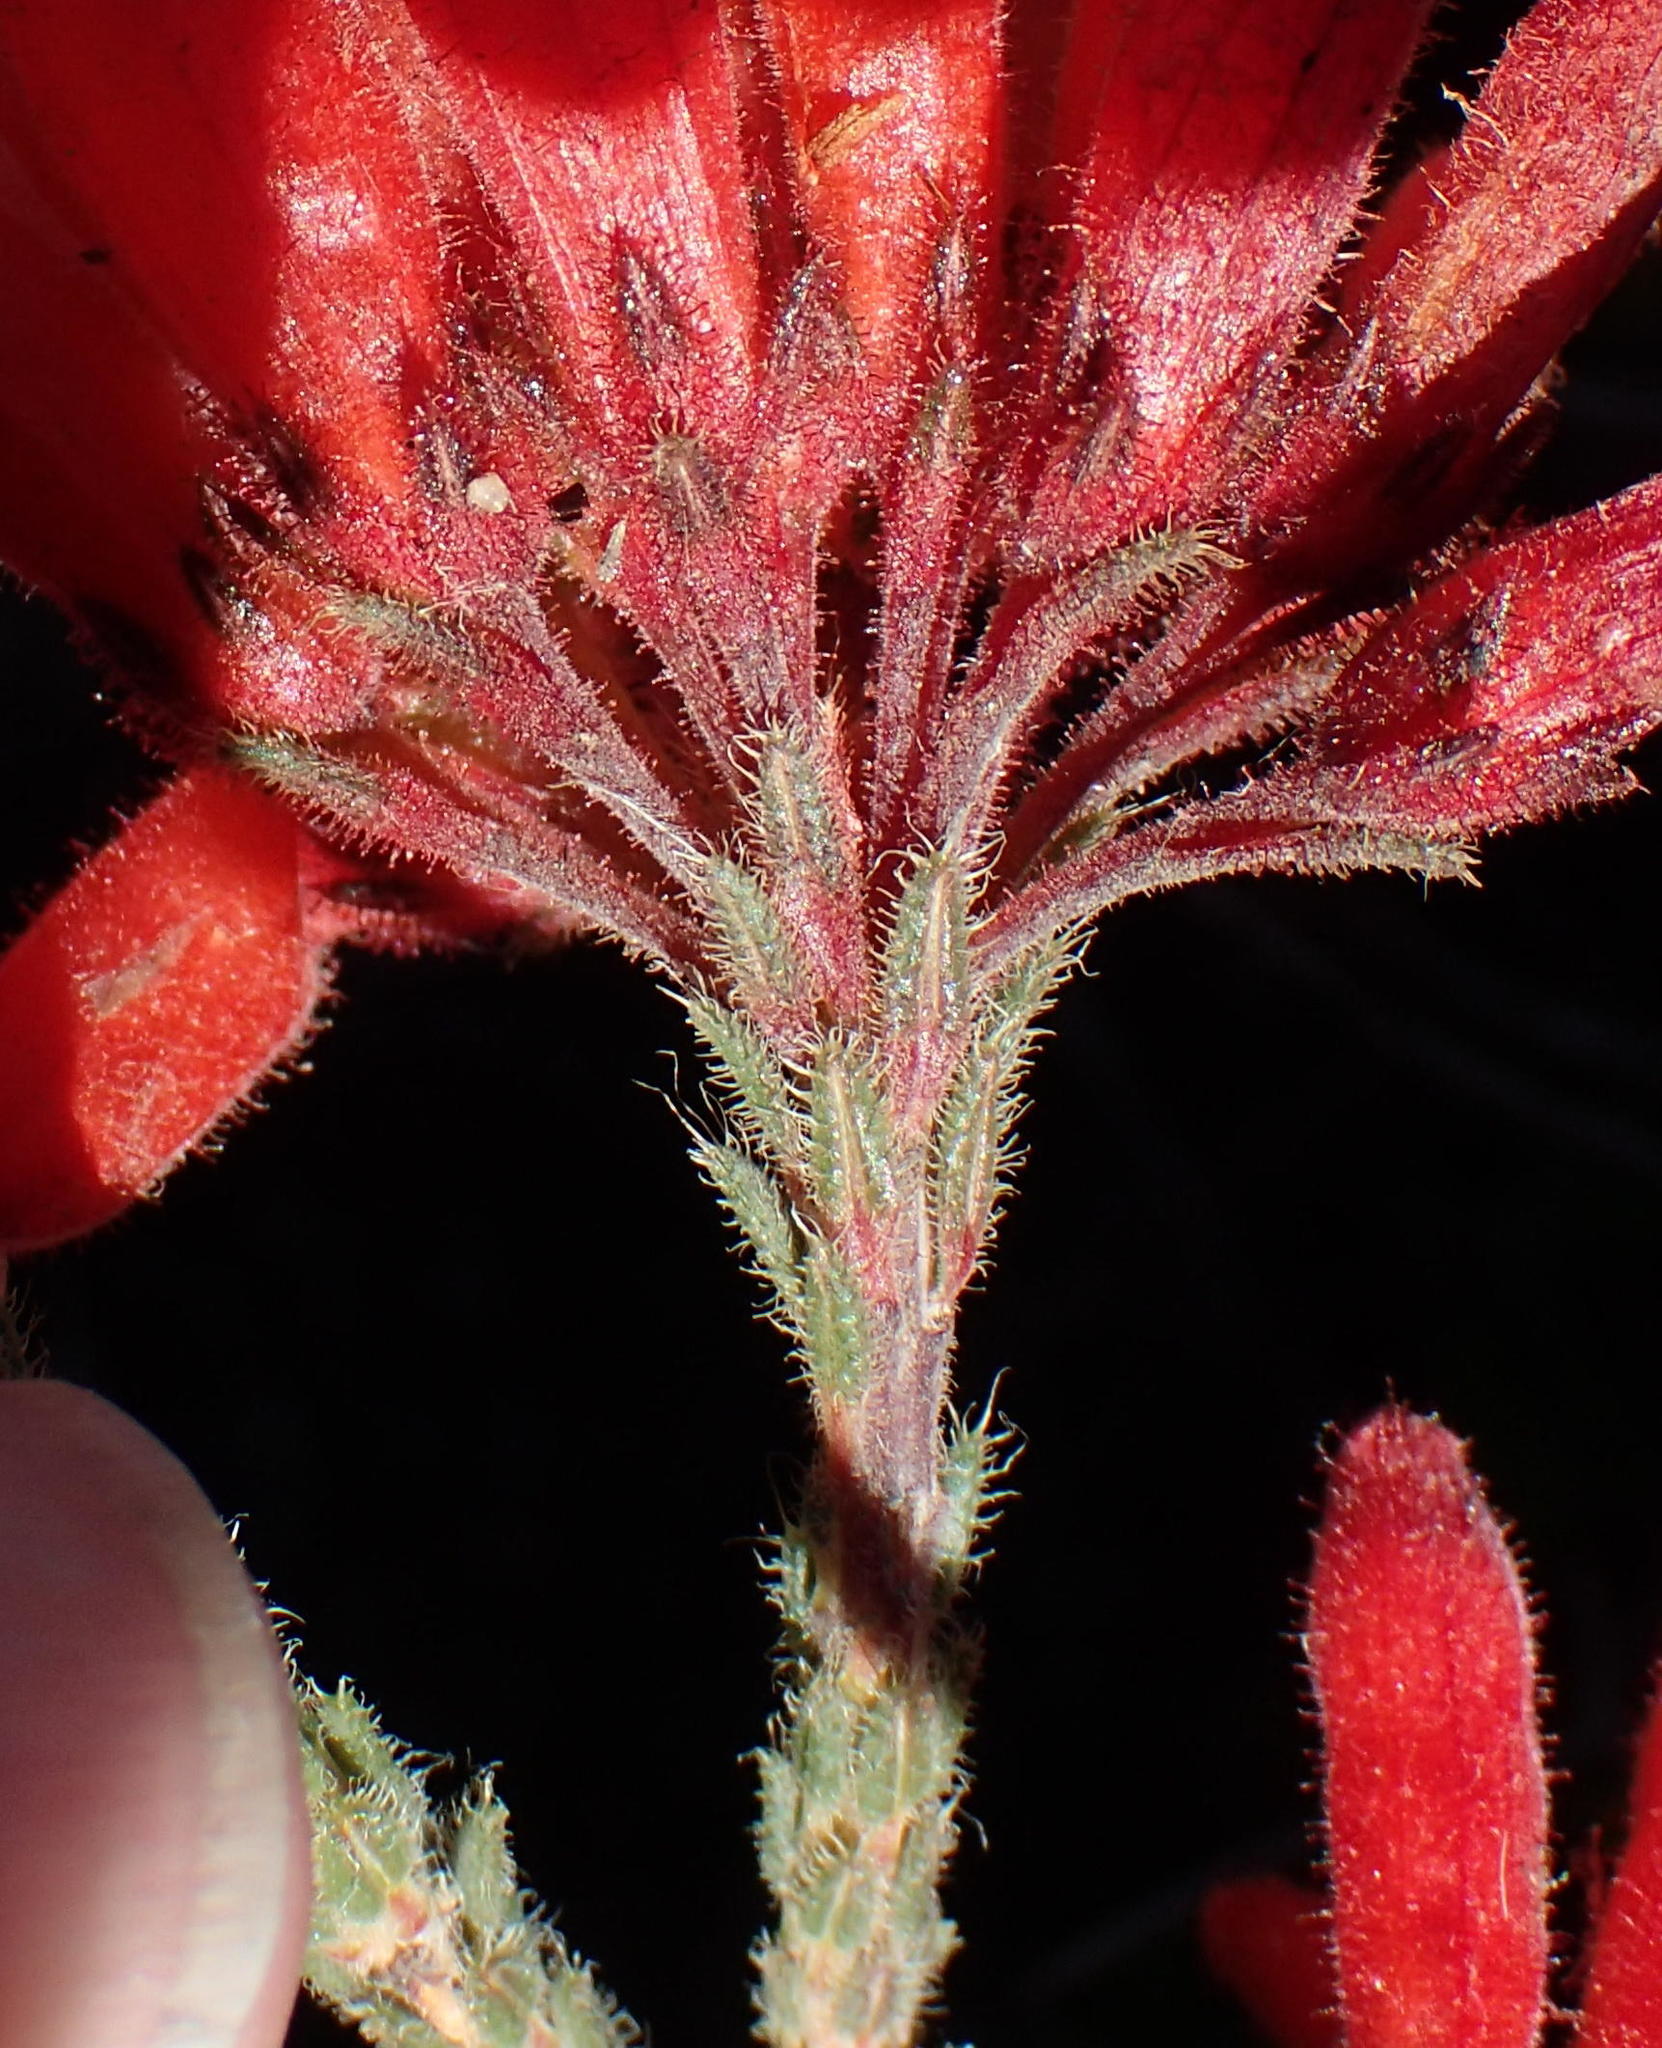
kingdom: Plantae
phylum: Tracheophyta
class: Magnoliopsida
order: Ericales
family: Ericaceae
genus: Erica
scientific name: Erica cerinthoides
